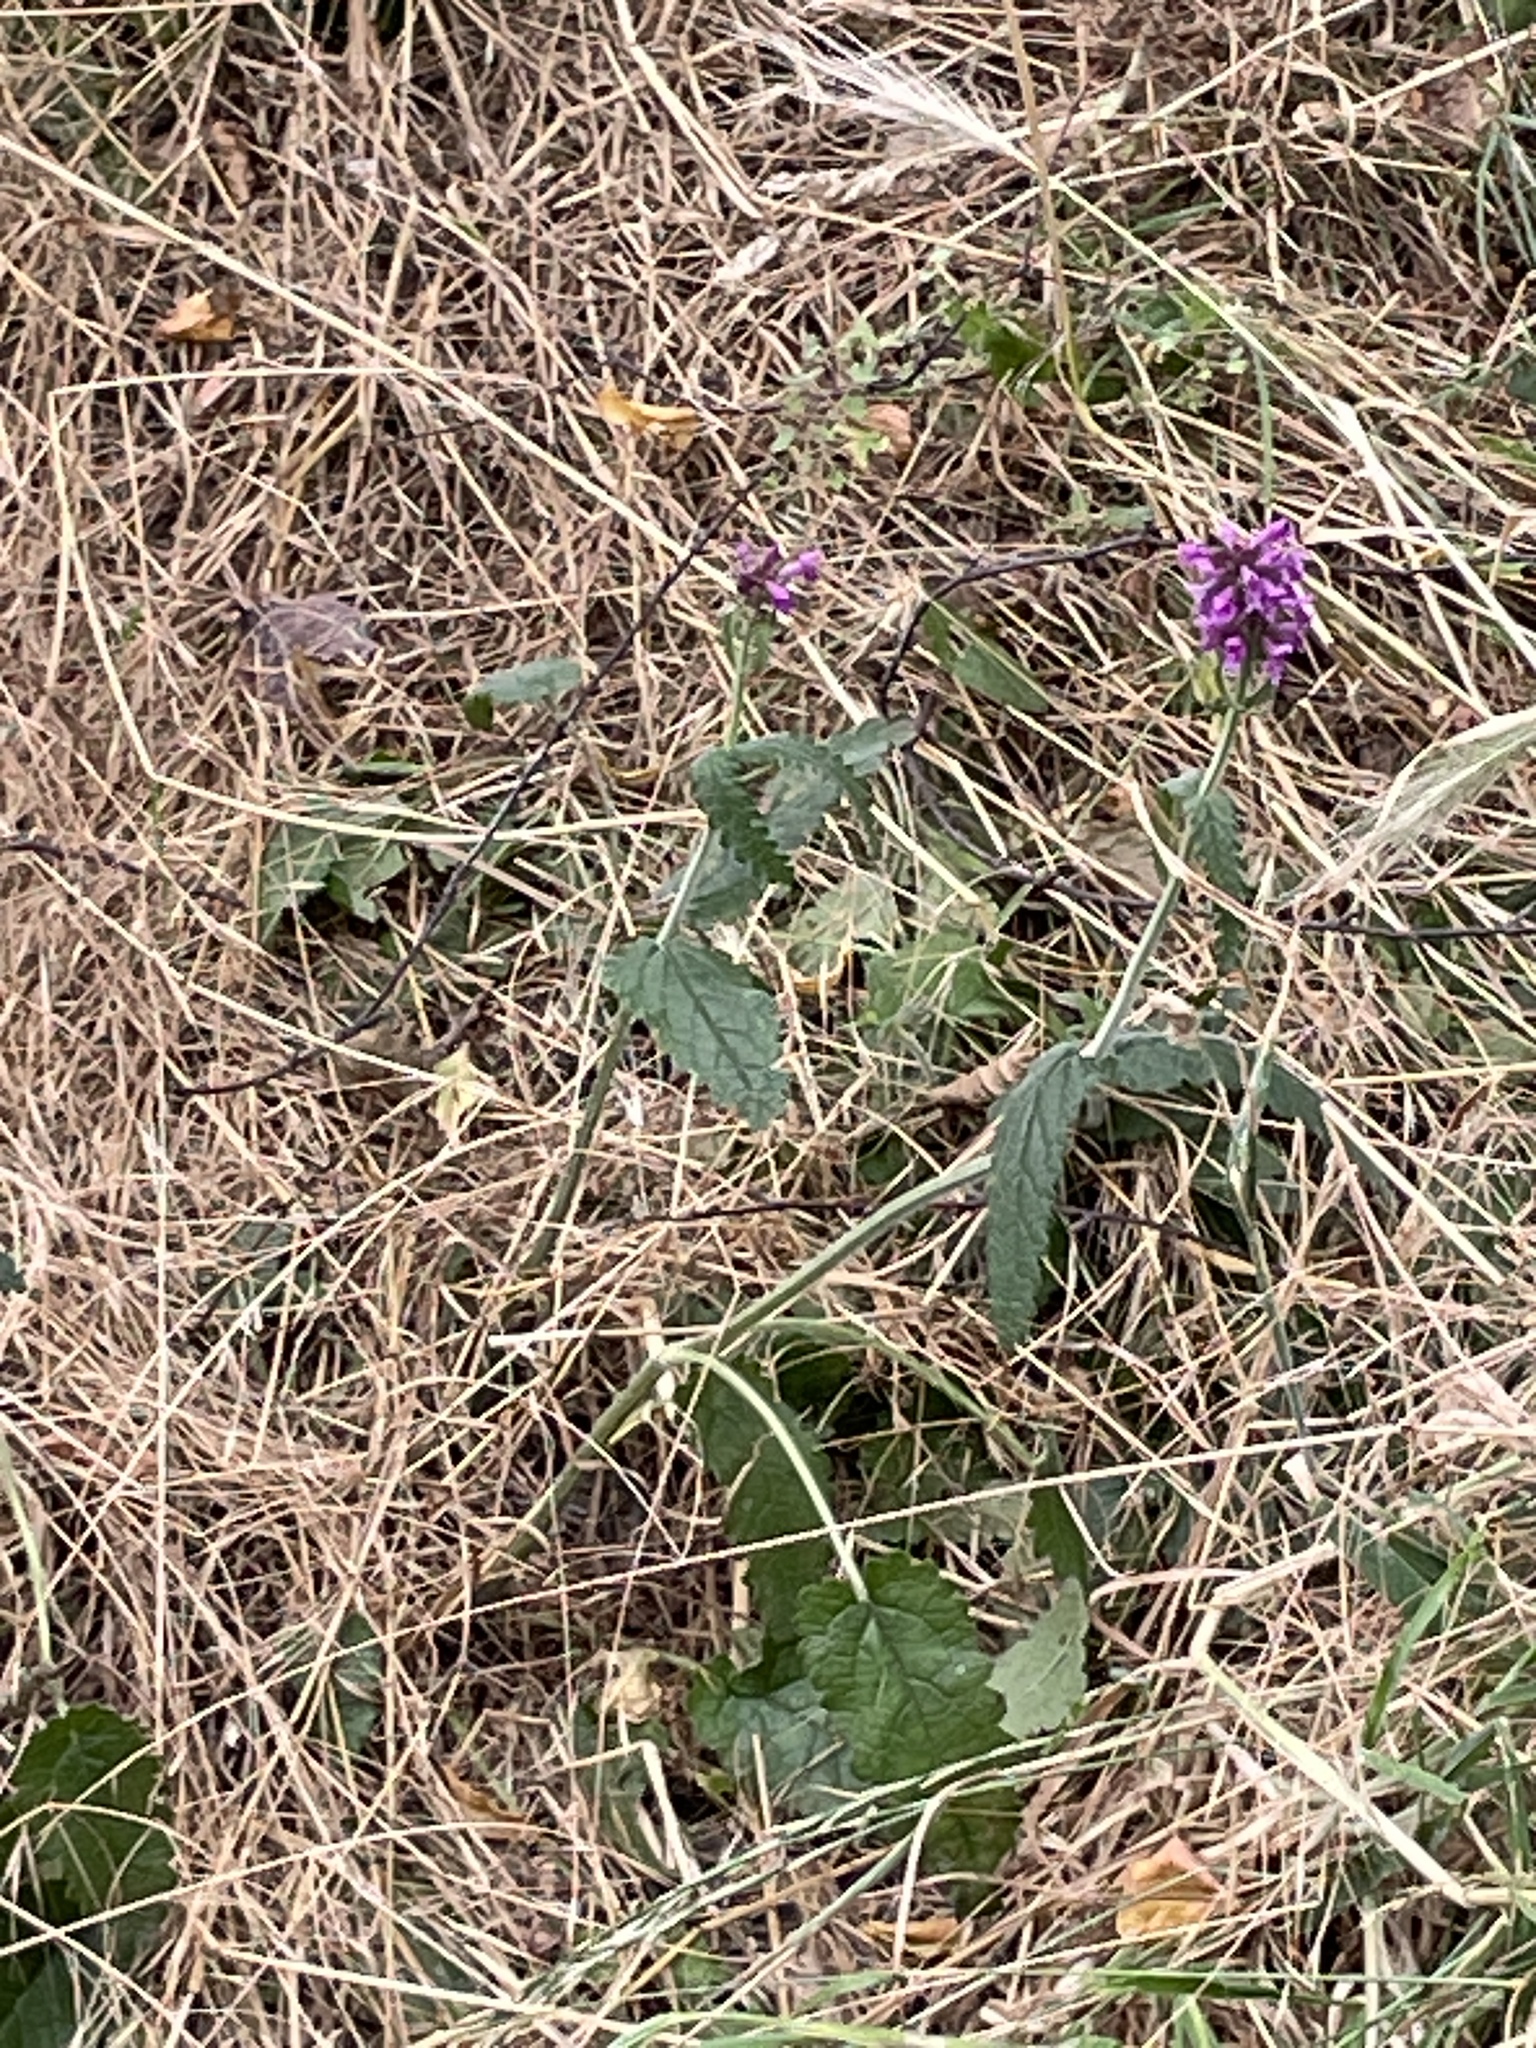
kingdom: Plantae
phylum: Tracheophyta
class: Magnoliopsida
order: Lamiales
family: Lamiaceae
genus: Betonica
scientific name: Betonica officinalis
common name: Bishop's-wort
